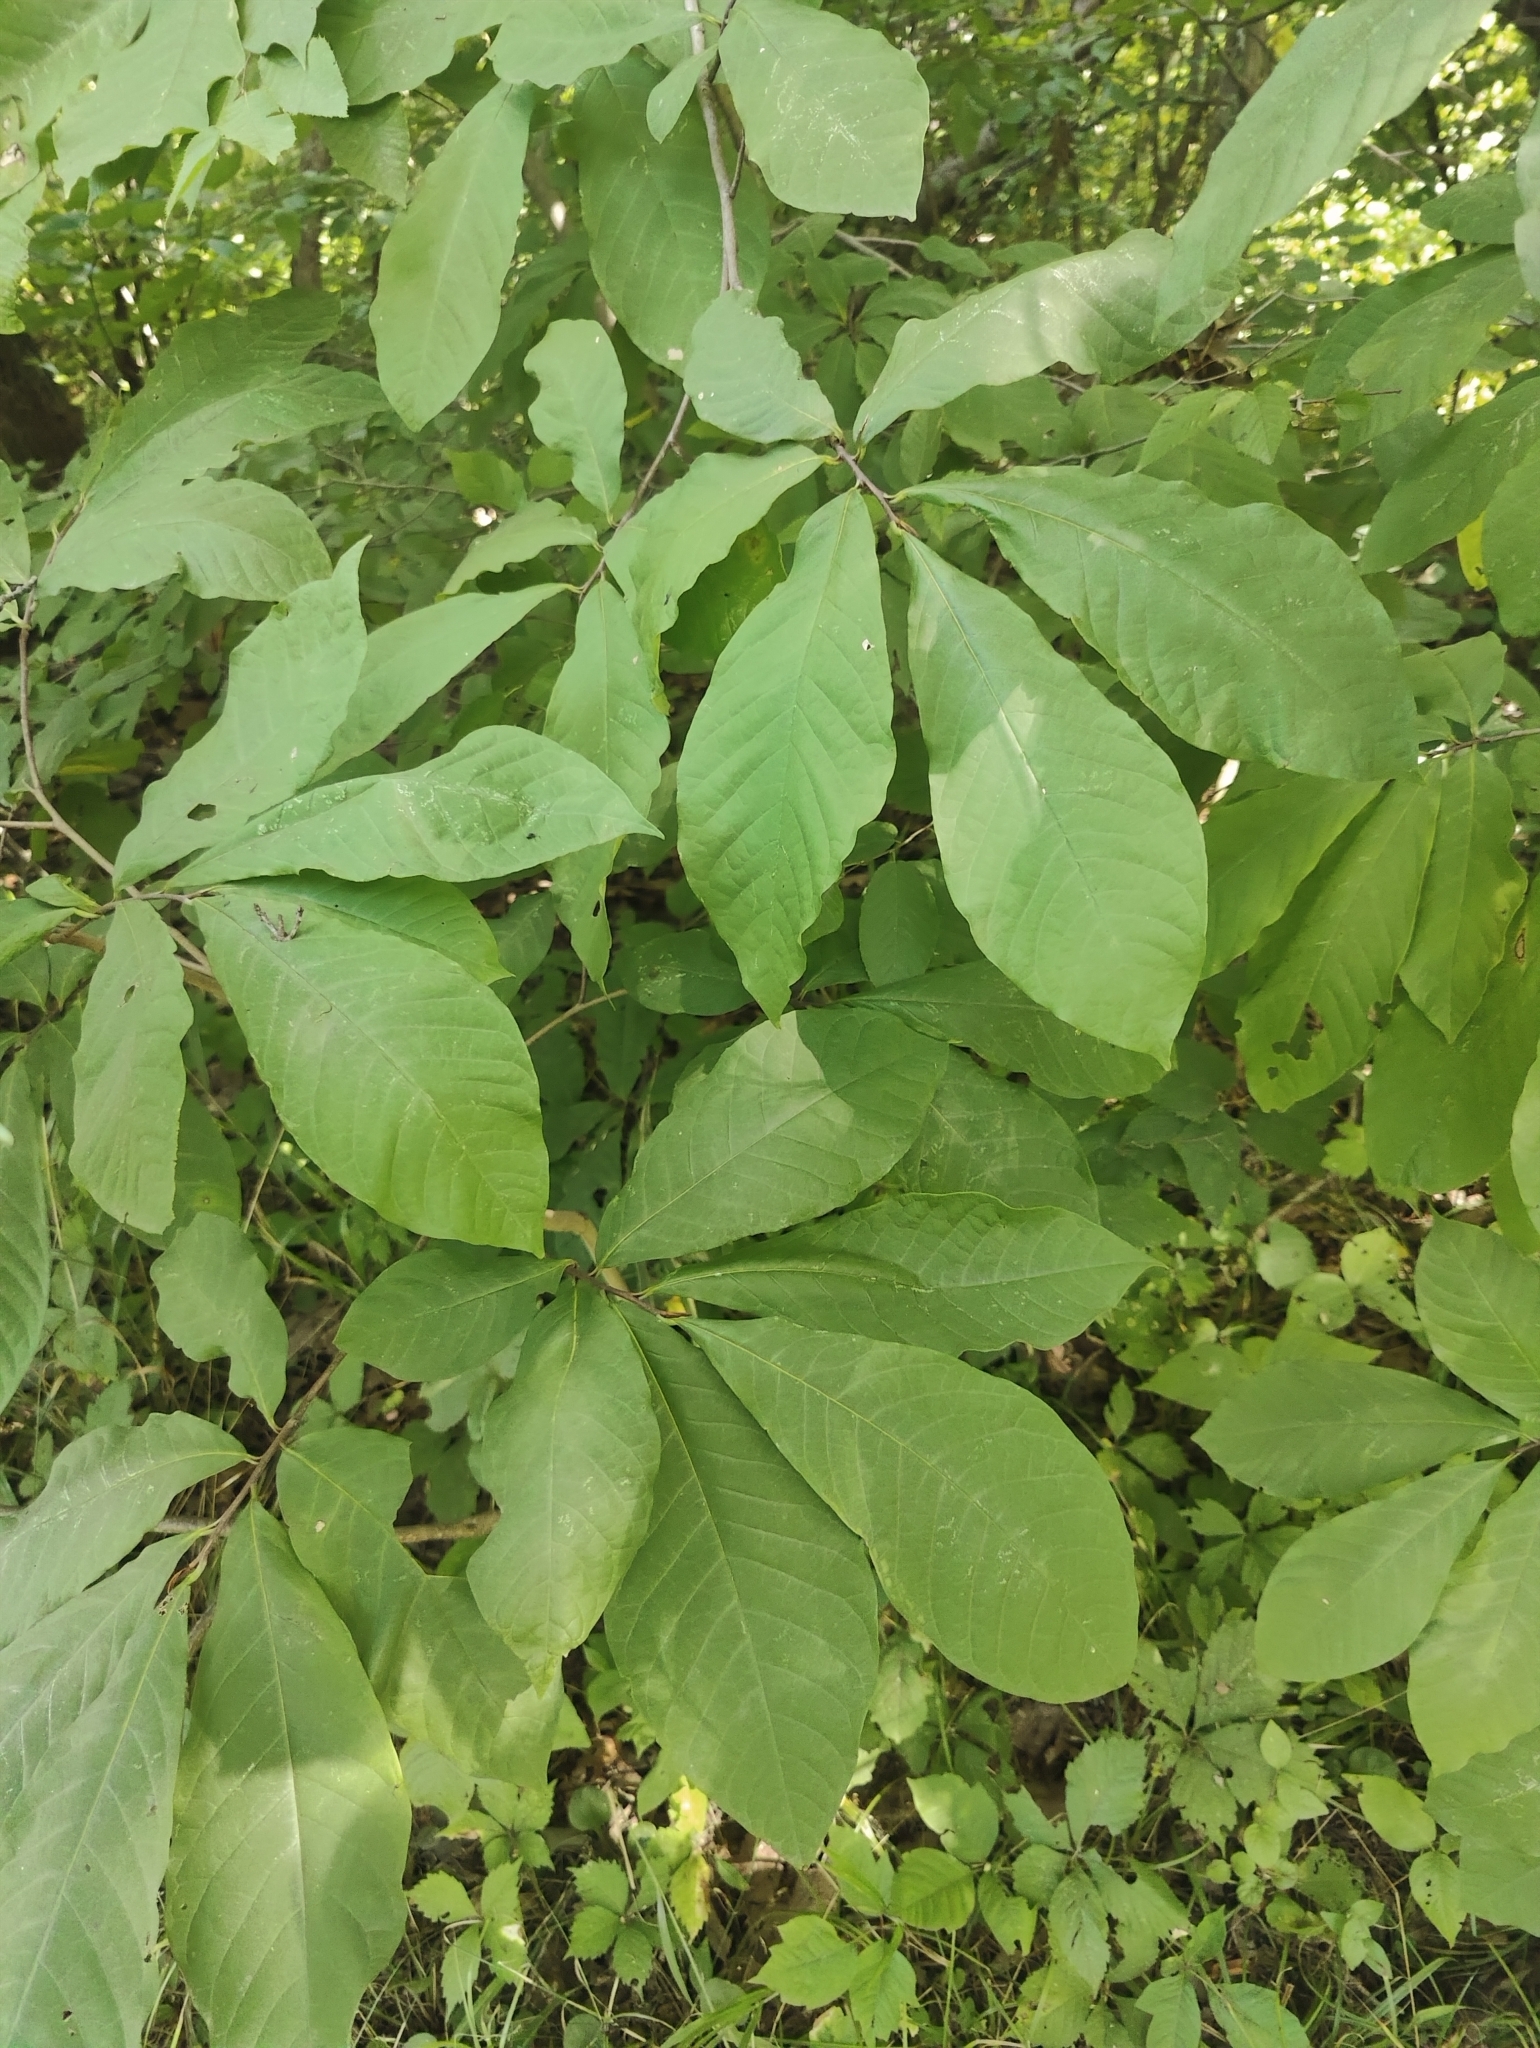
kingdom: Plantae
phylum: Tracheophyta
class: Magnoliopsida
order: Magnoliales
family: Annonaceae
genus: Asimina
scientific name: Asimina triloba
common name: Dog-banana
